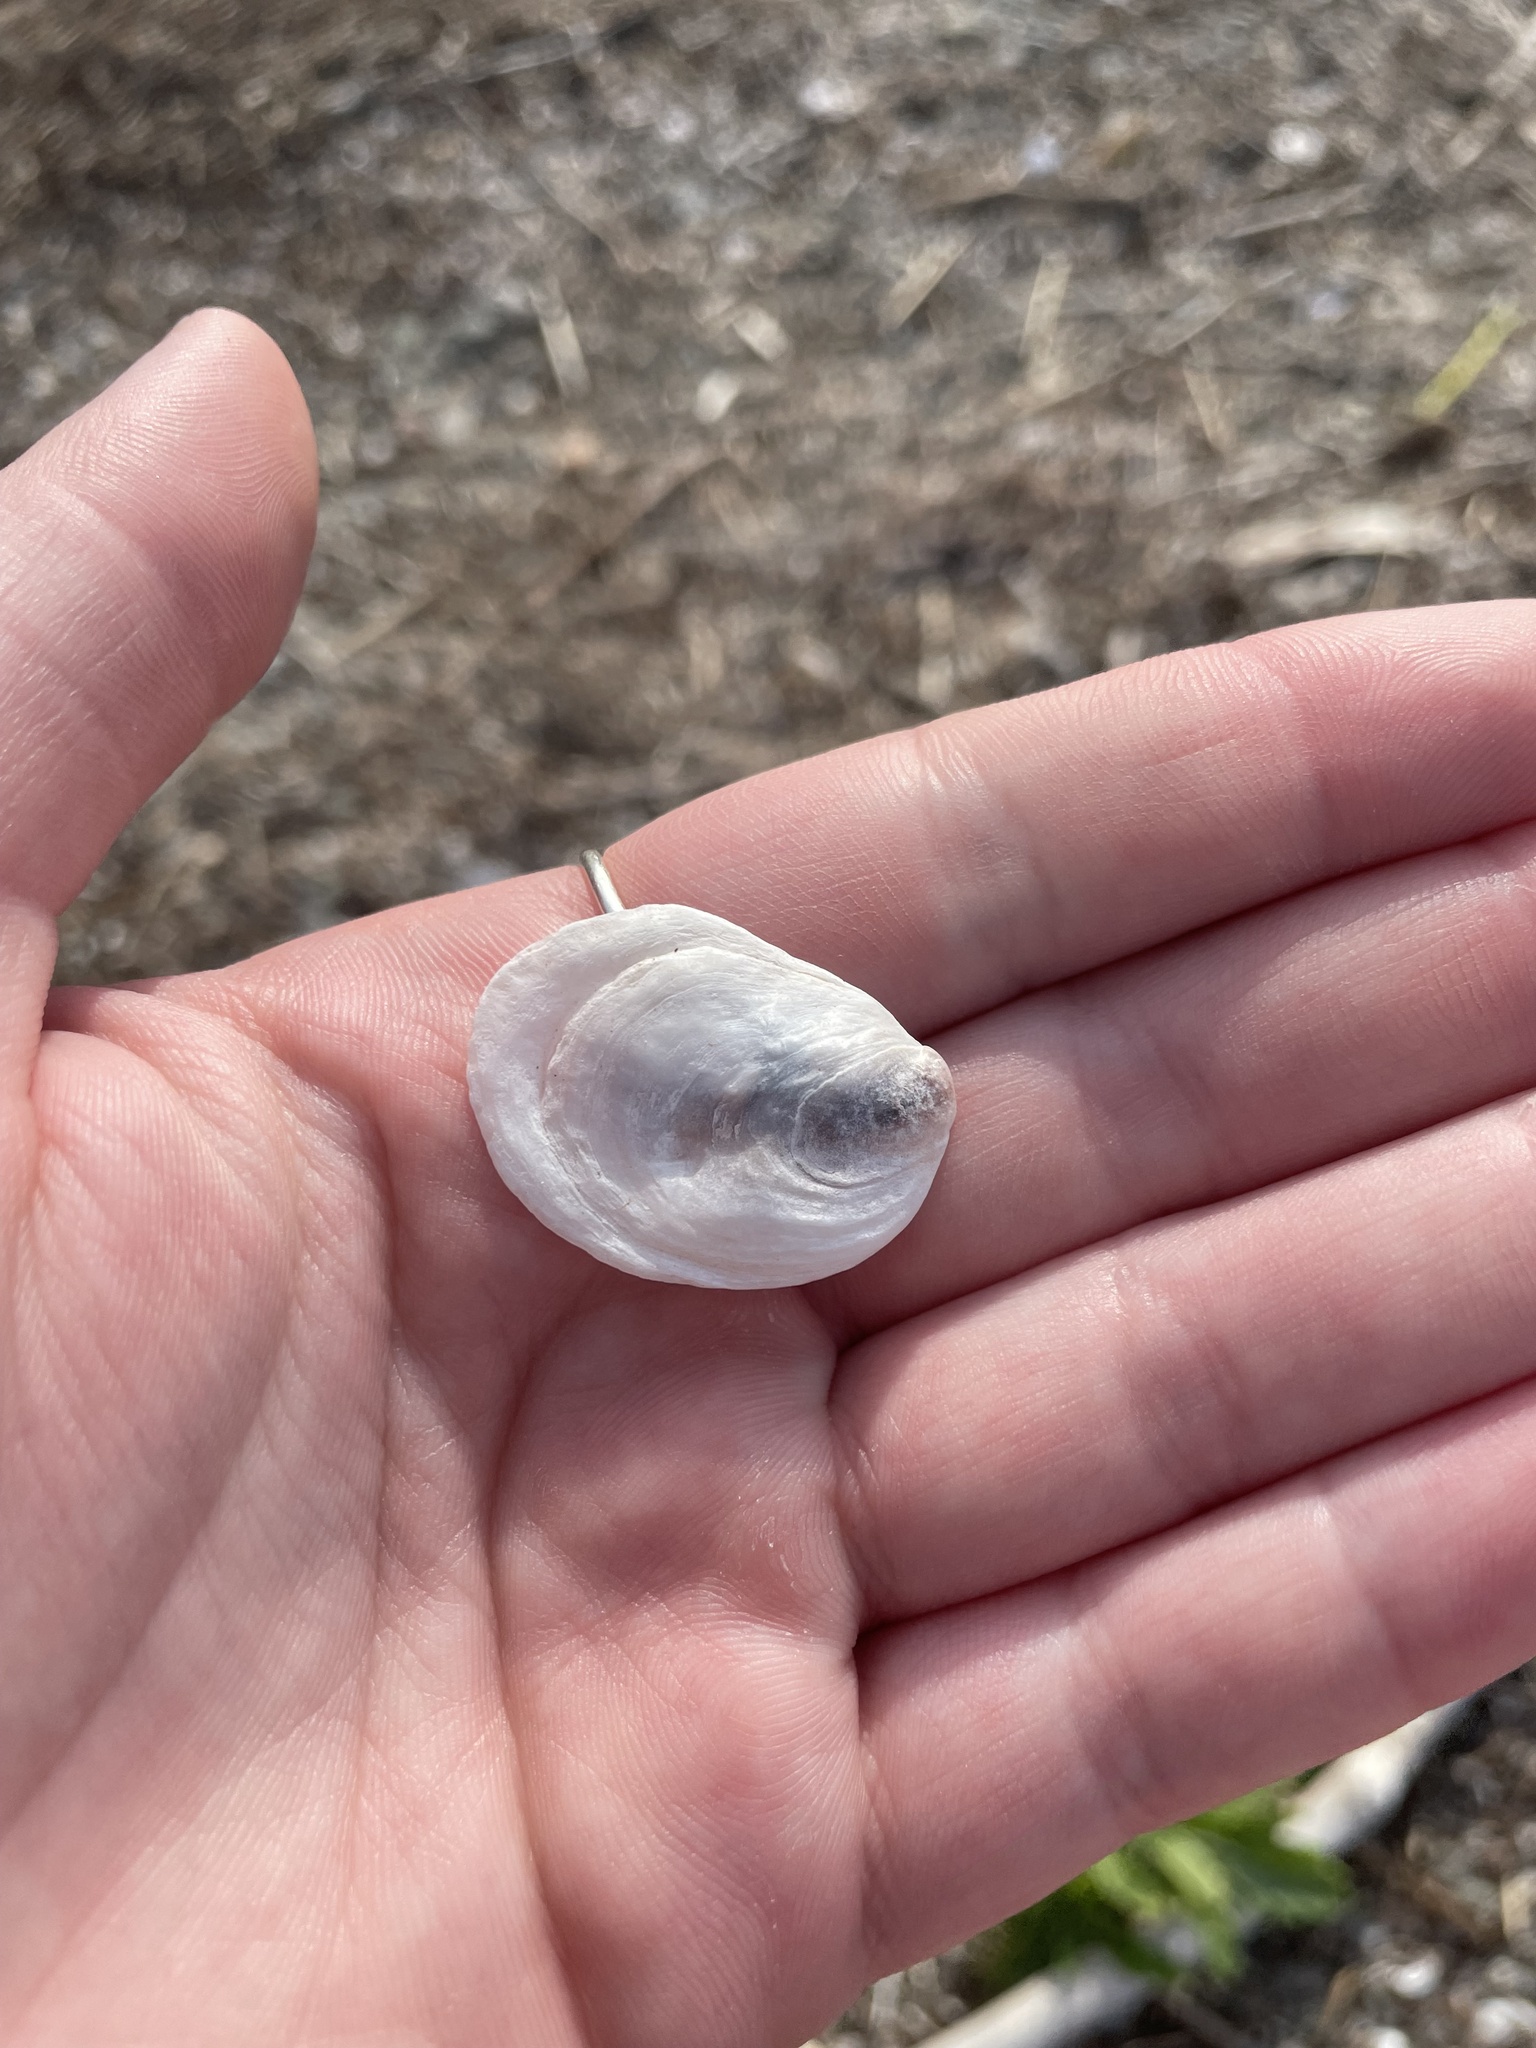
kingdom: Animalia
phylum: Mollusca
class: Bivalvia
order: Ostreida
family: Ostreidae
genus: Crassostrea
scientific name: Crassostrea virginica
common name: American oyster
